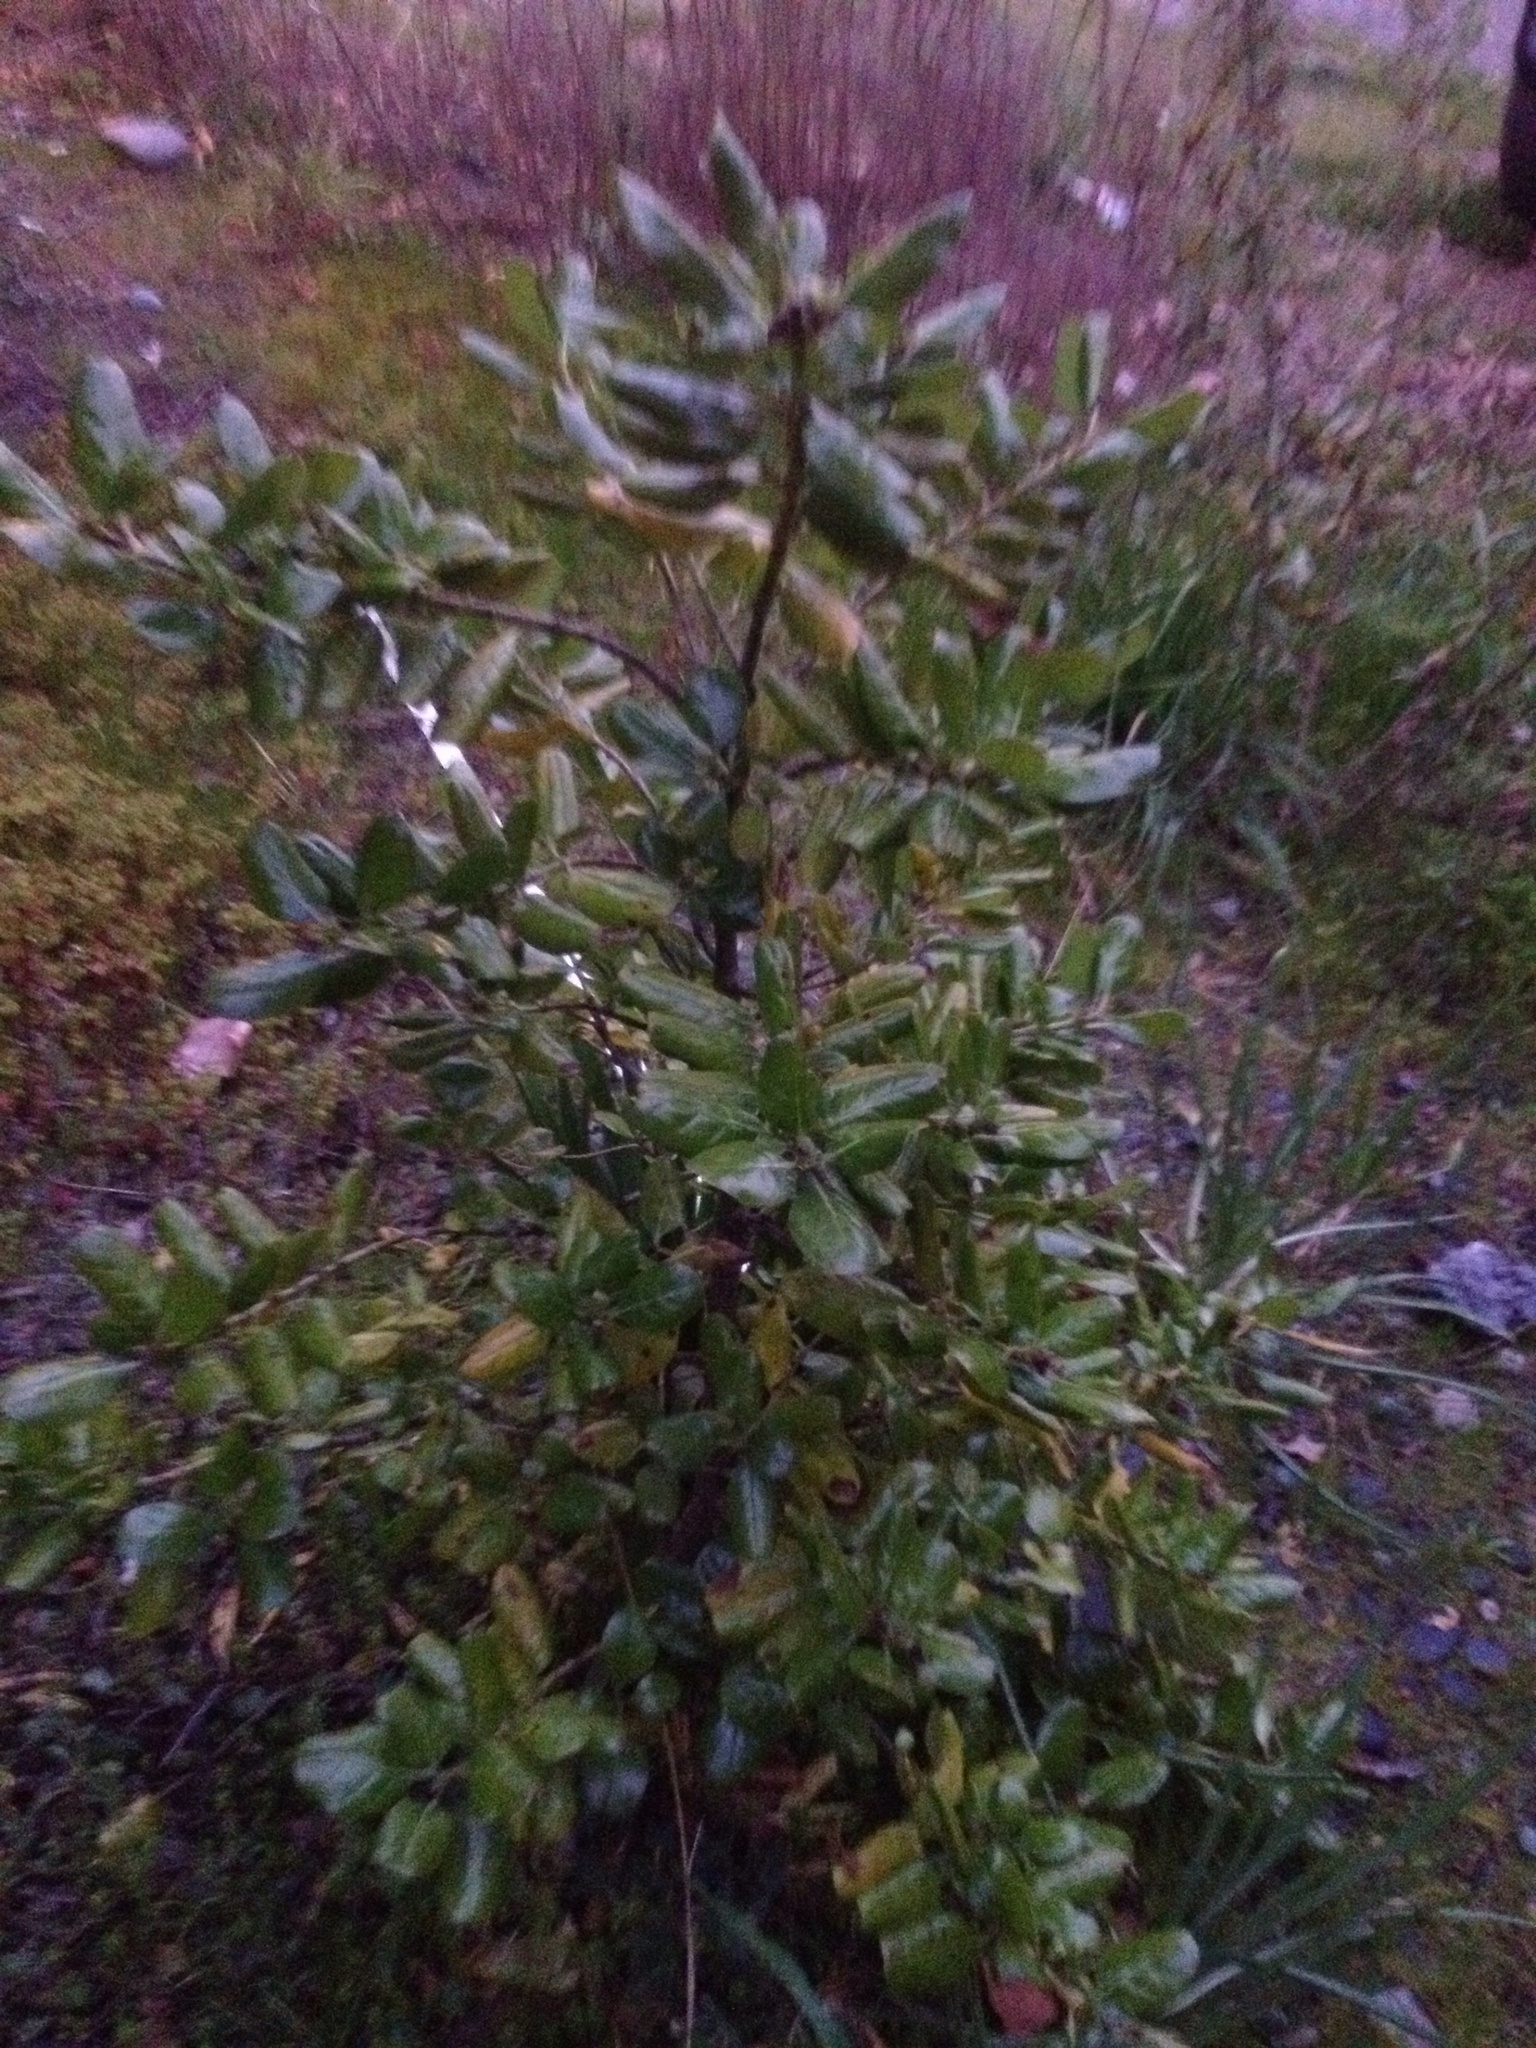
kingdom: Plantae
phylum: Tracheophyta
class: Magnoliopsida
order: Gentianales
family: Rubiaceae
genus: Coprosma
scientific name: Coprosma repens
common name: Tree bedstraw
